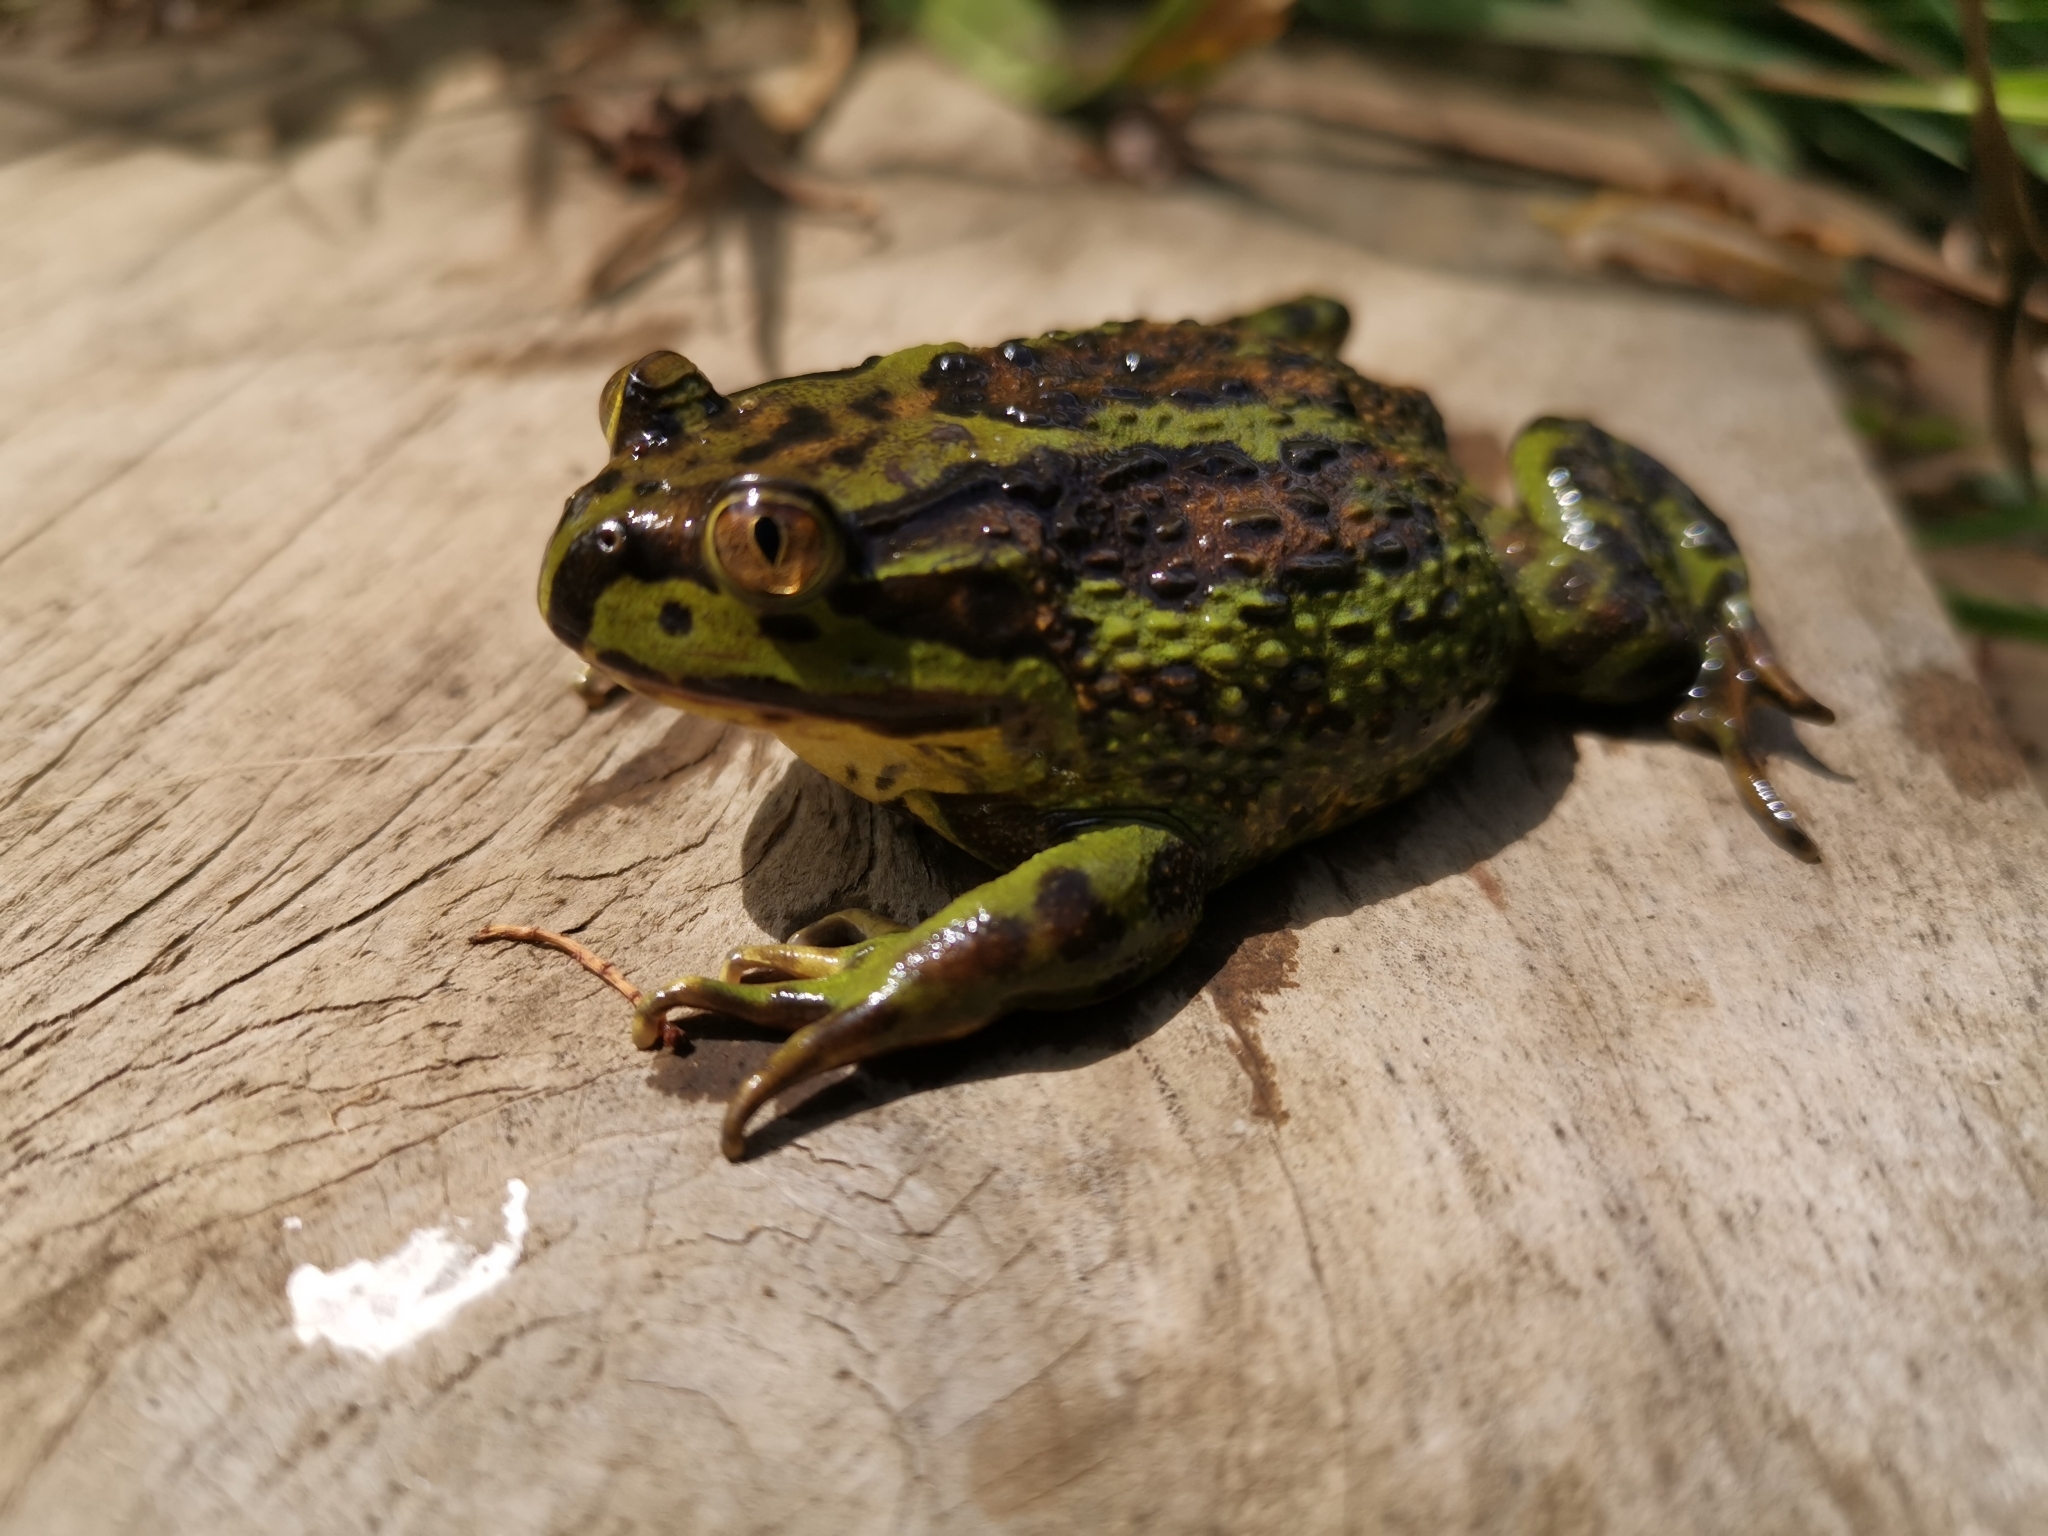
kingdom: Animalia
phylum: Chordata
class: Amphibia
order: Anura
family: Calyptocephalellidae
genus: Calyptocephalella
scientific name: Calyptocephalella gayi
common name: Chilean toad
